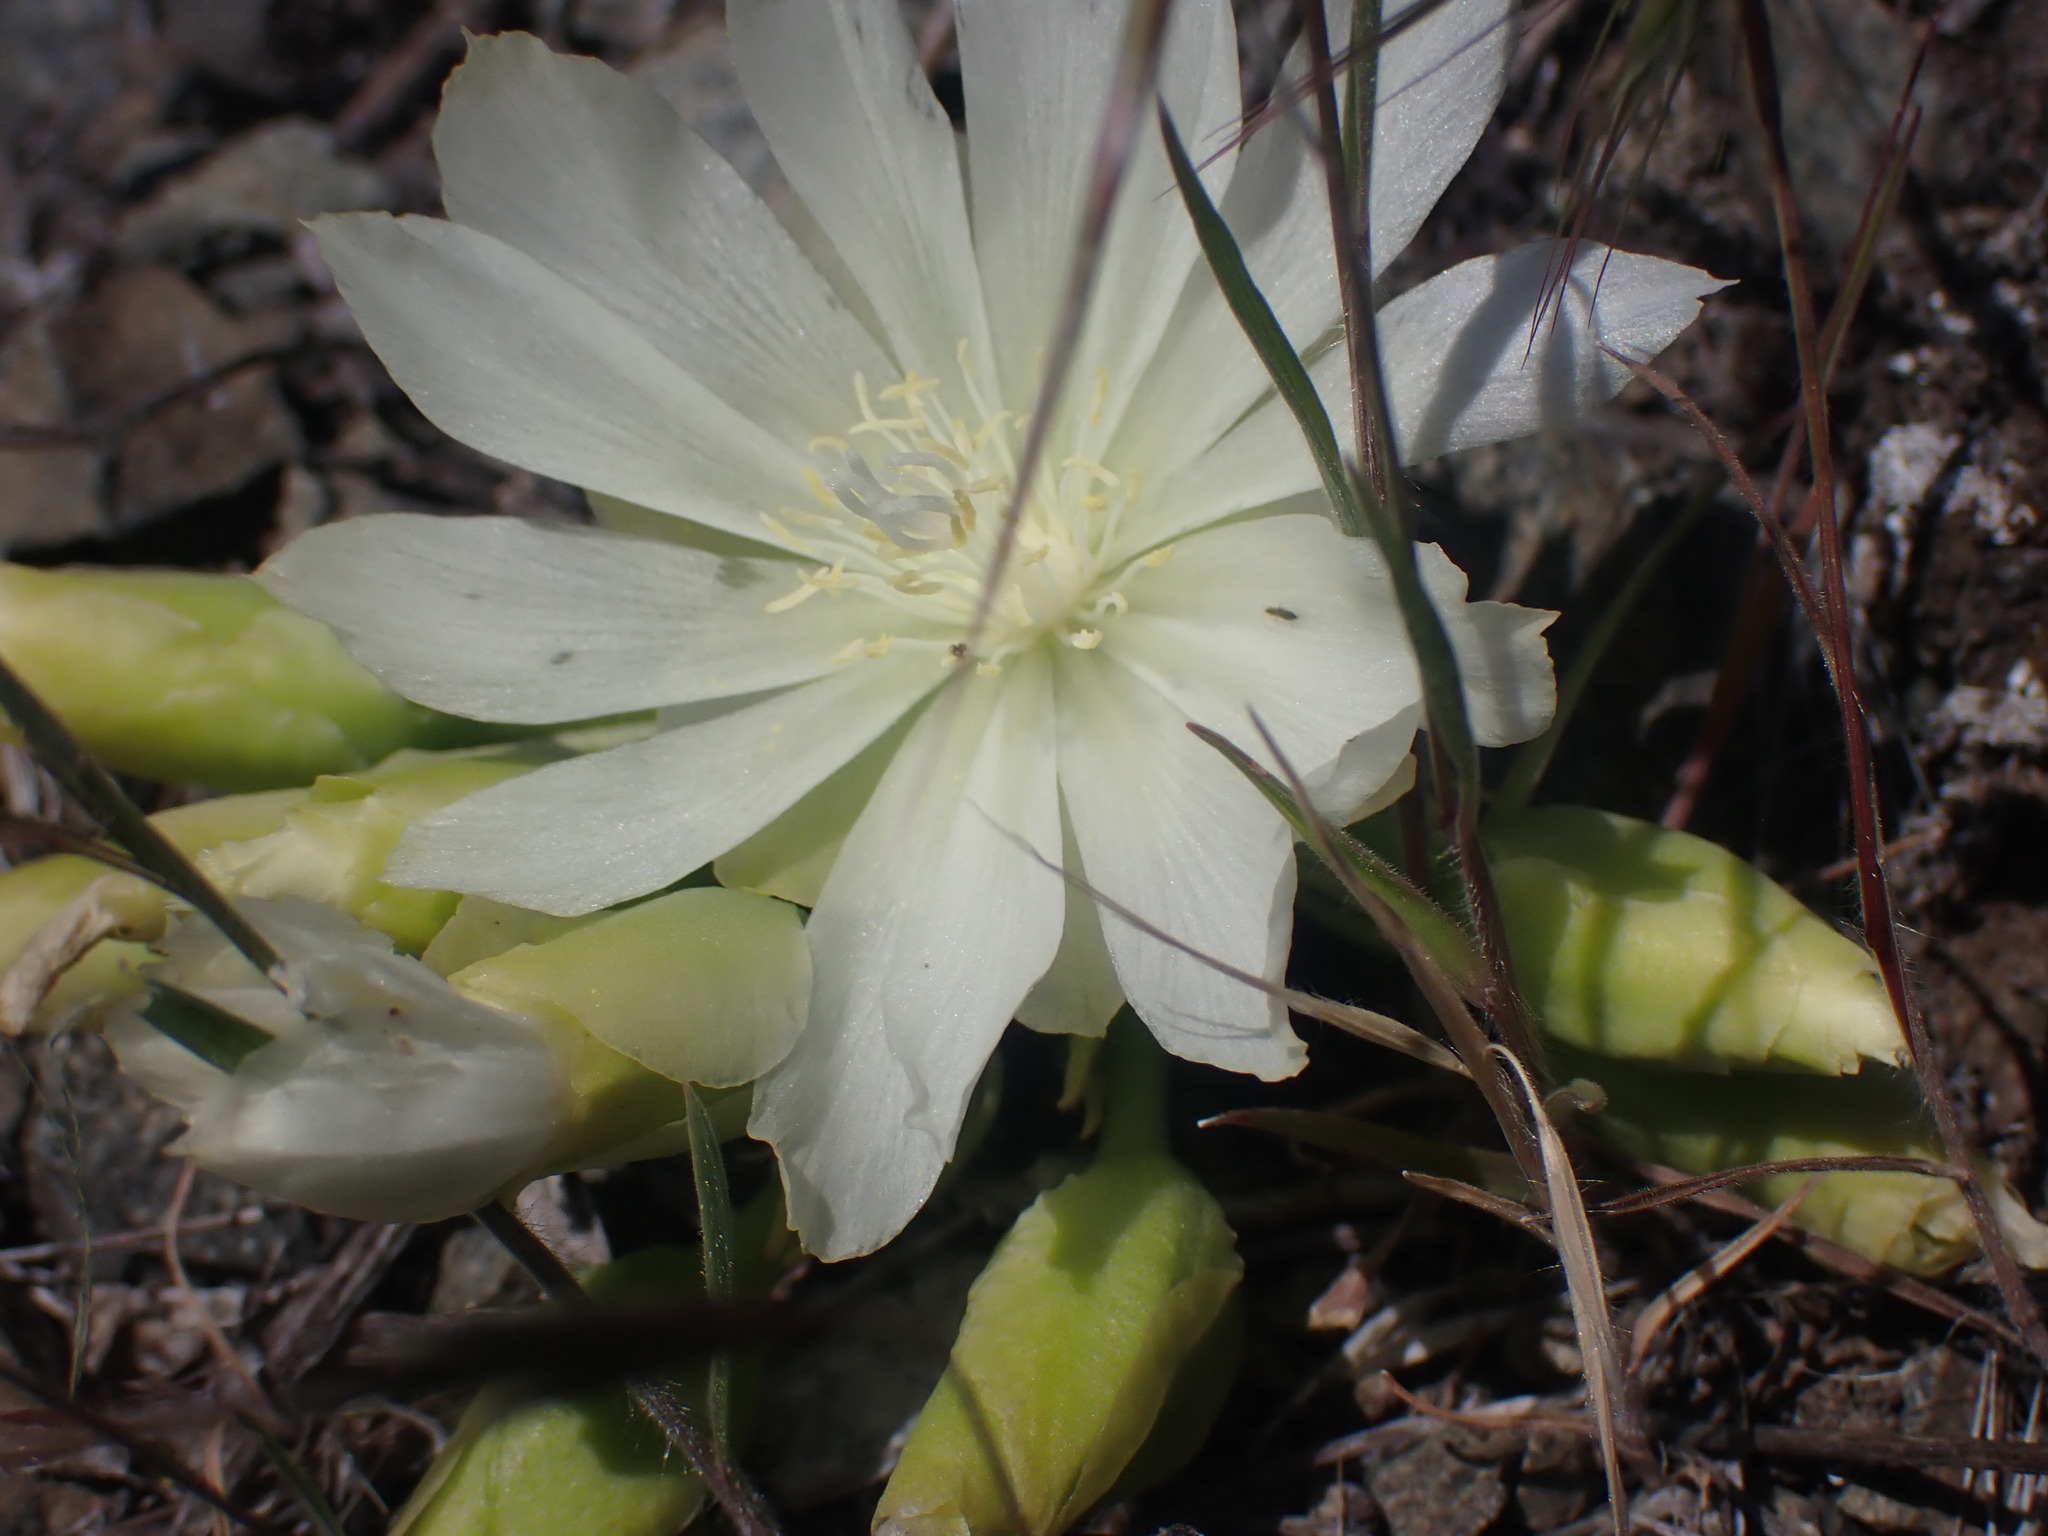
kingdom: Plantae
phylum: Tracheophyta
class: Magnoliopsida
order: Caryophyllales
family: Montiaceae
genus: Lewisia
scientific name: Lewisia rediviva
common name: Bitter-root
